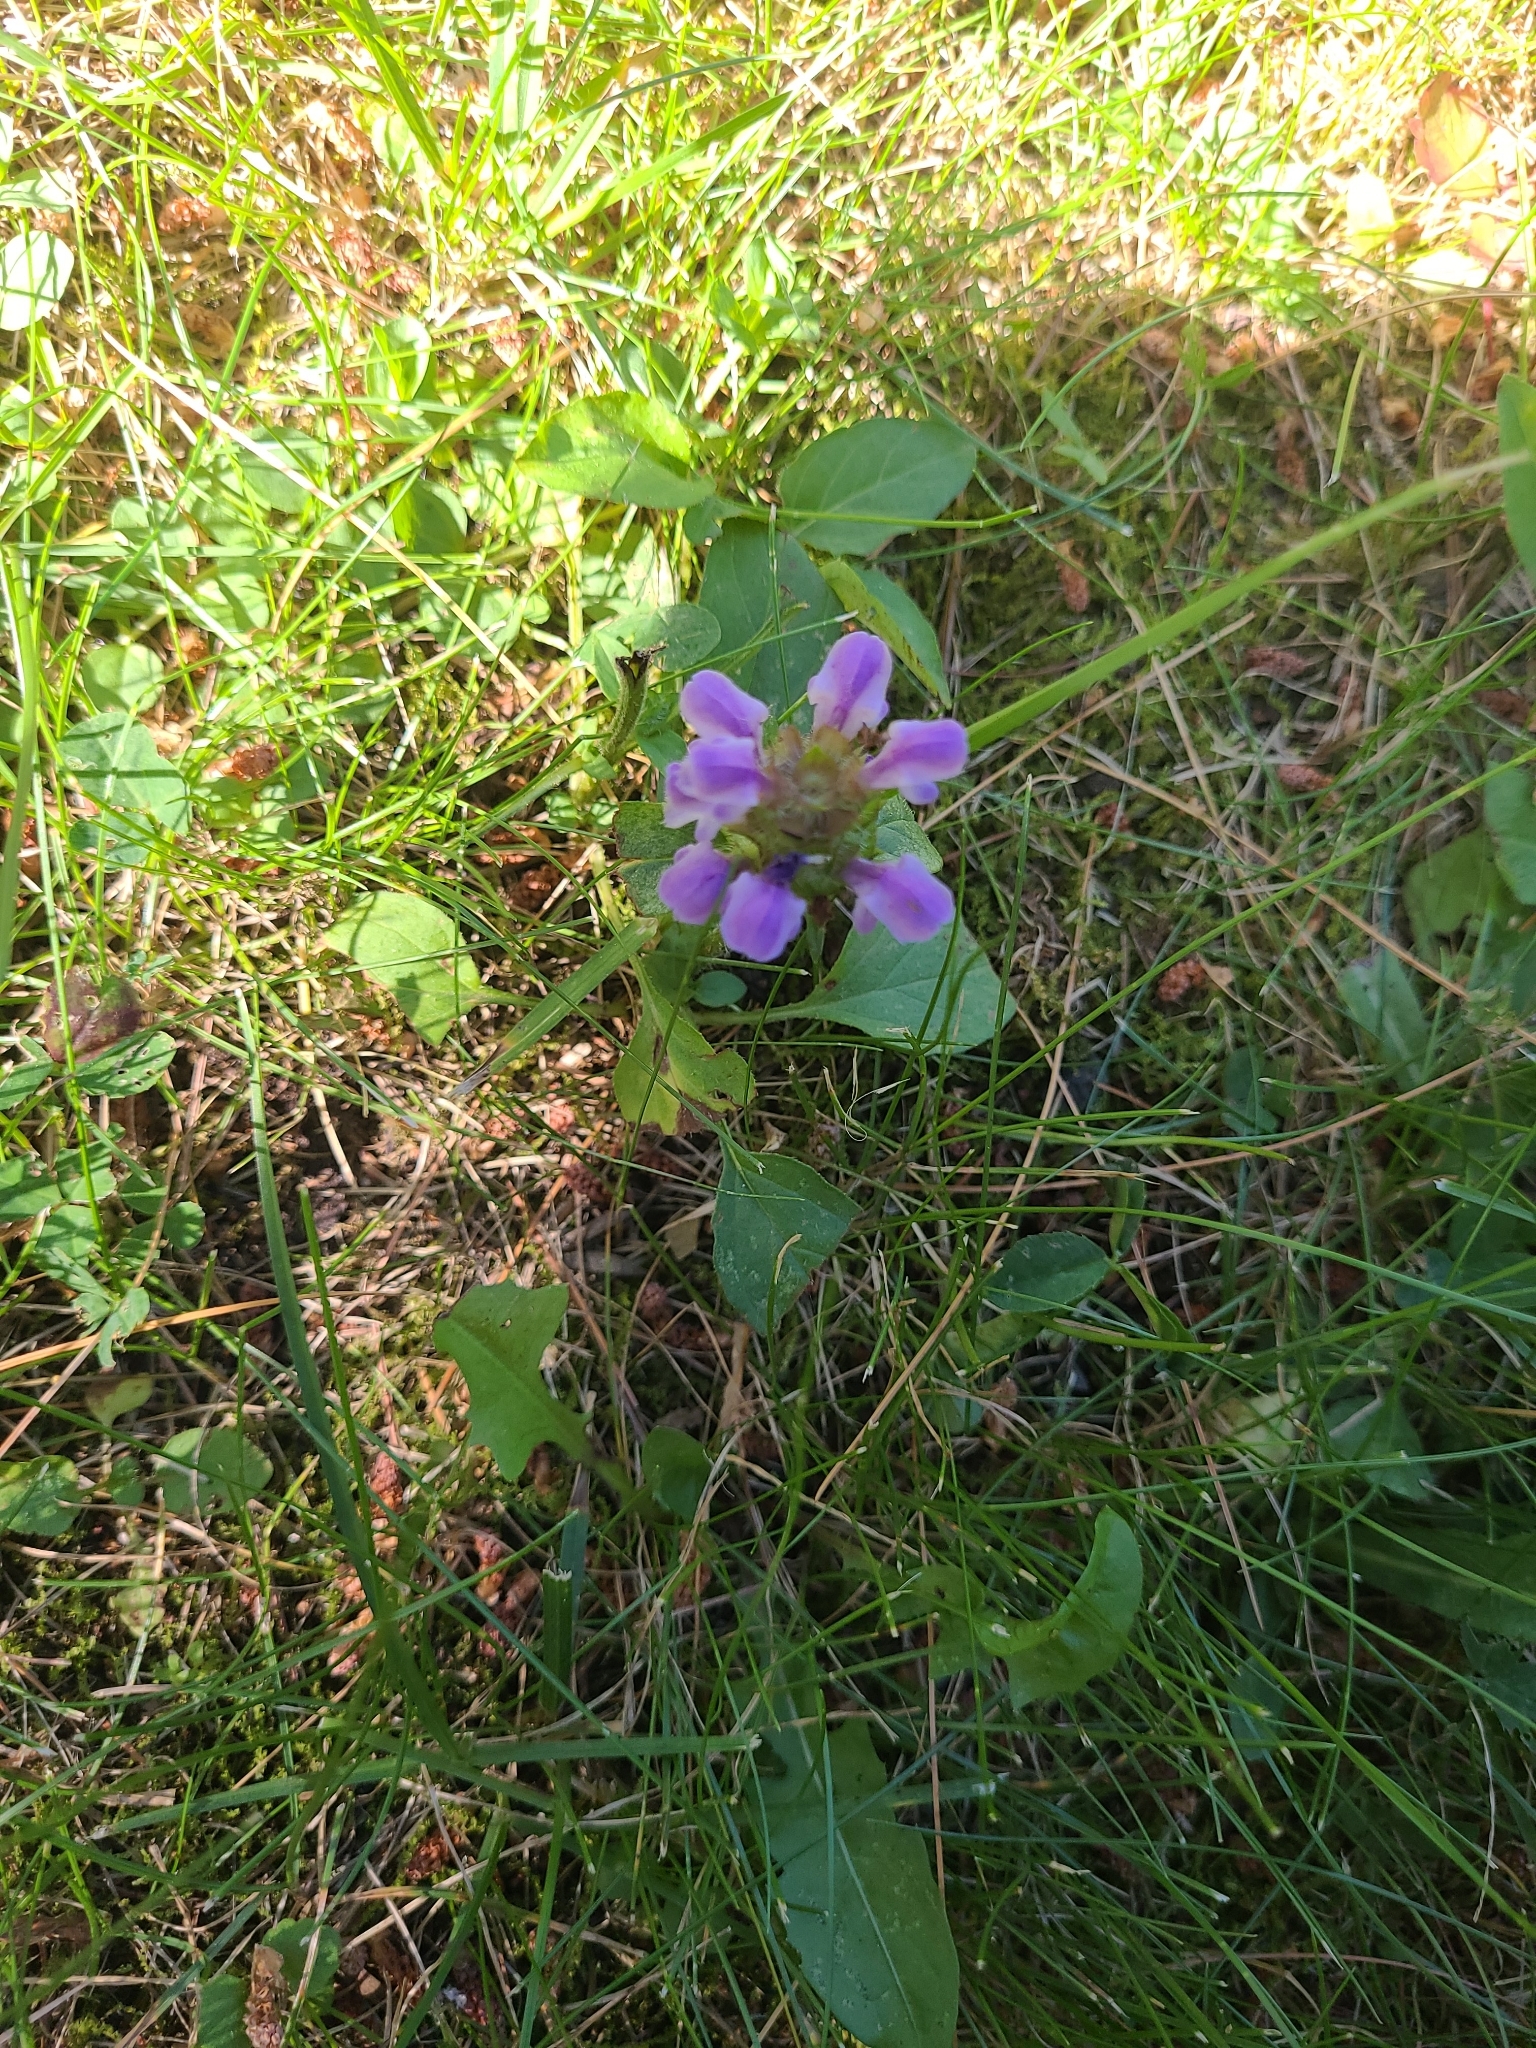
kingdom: Plantae
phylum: Tracheophyta
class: Magnoliopsida
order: Lamiales
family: Lamiaceae
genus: Prunella
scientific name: Prunella vulgaris
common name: Heal-all
